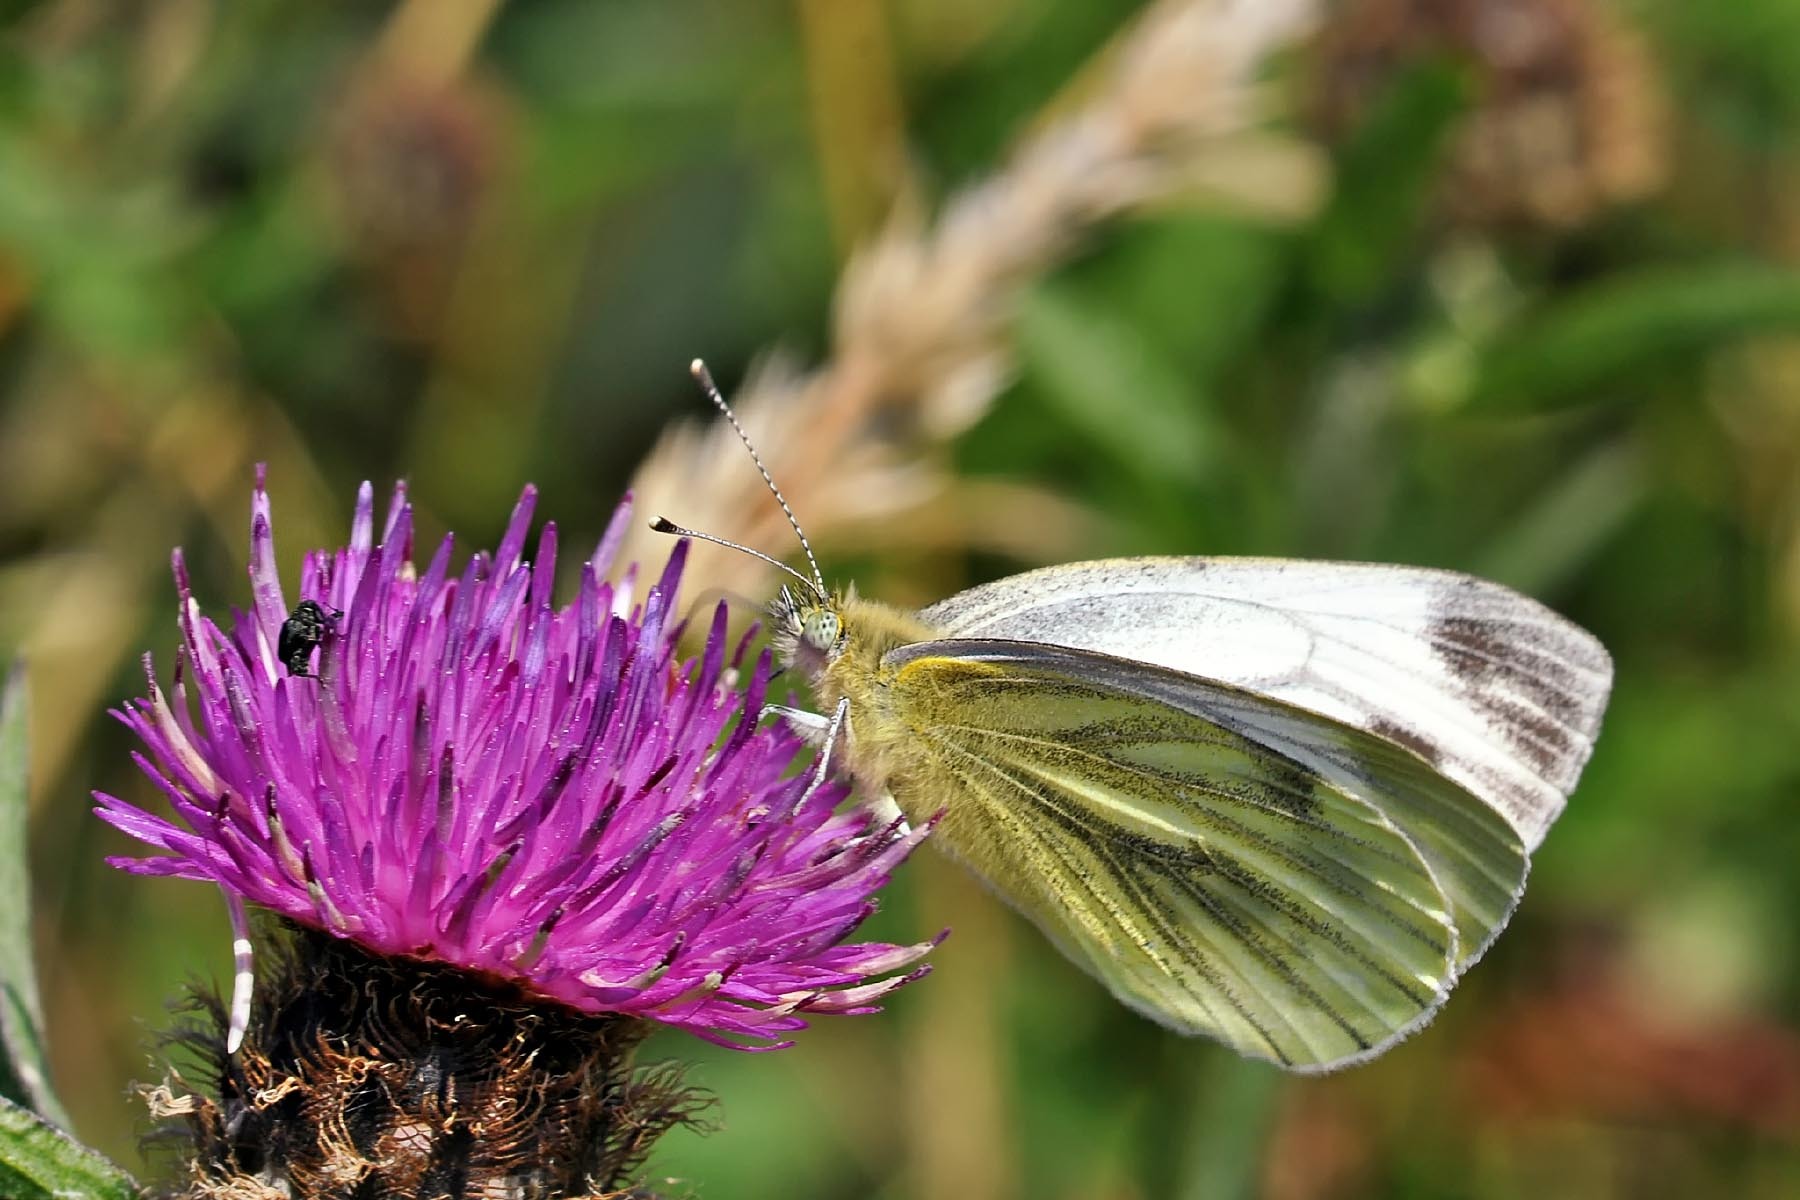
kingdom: Animalia
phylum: Arthropoda
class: Insecta
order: Lepidoptera
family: Pieridae
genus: Pieris
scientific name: Pieris napi
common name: Green-veined white
